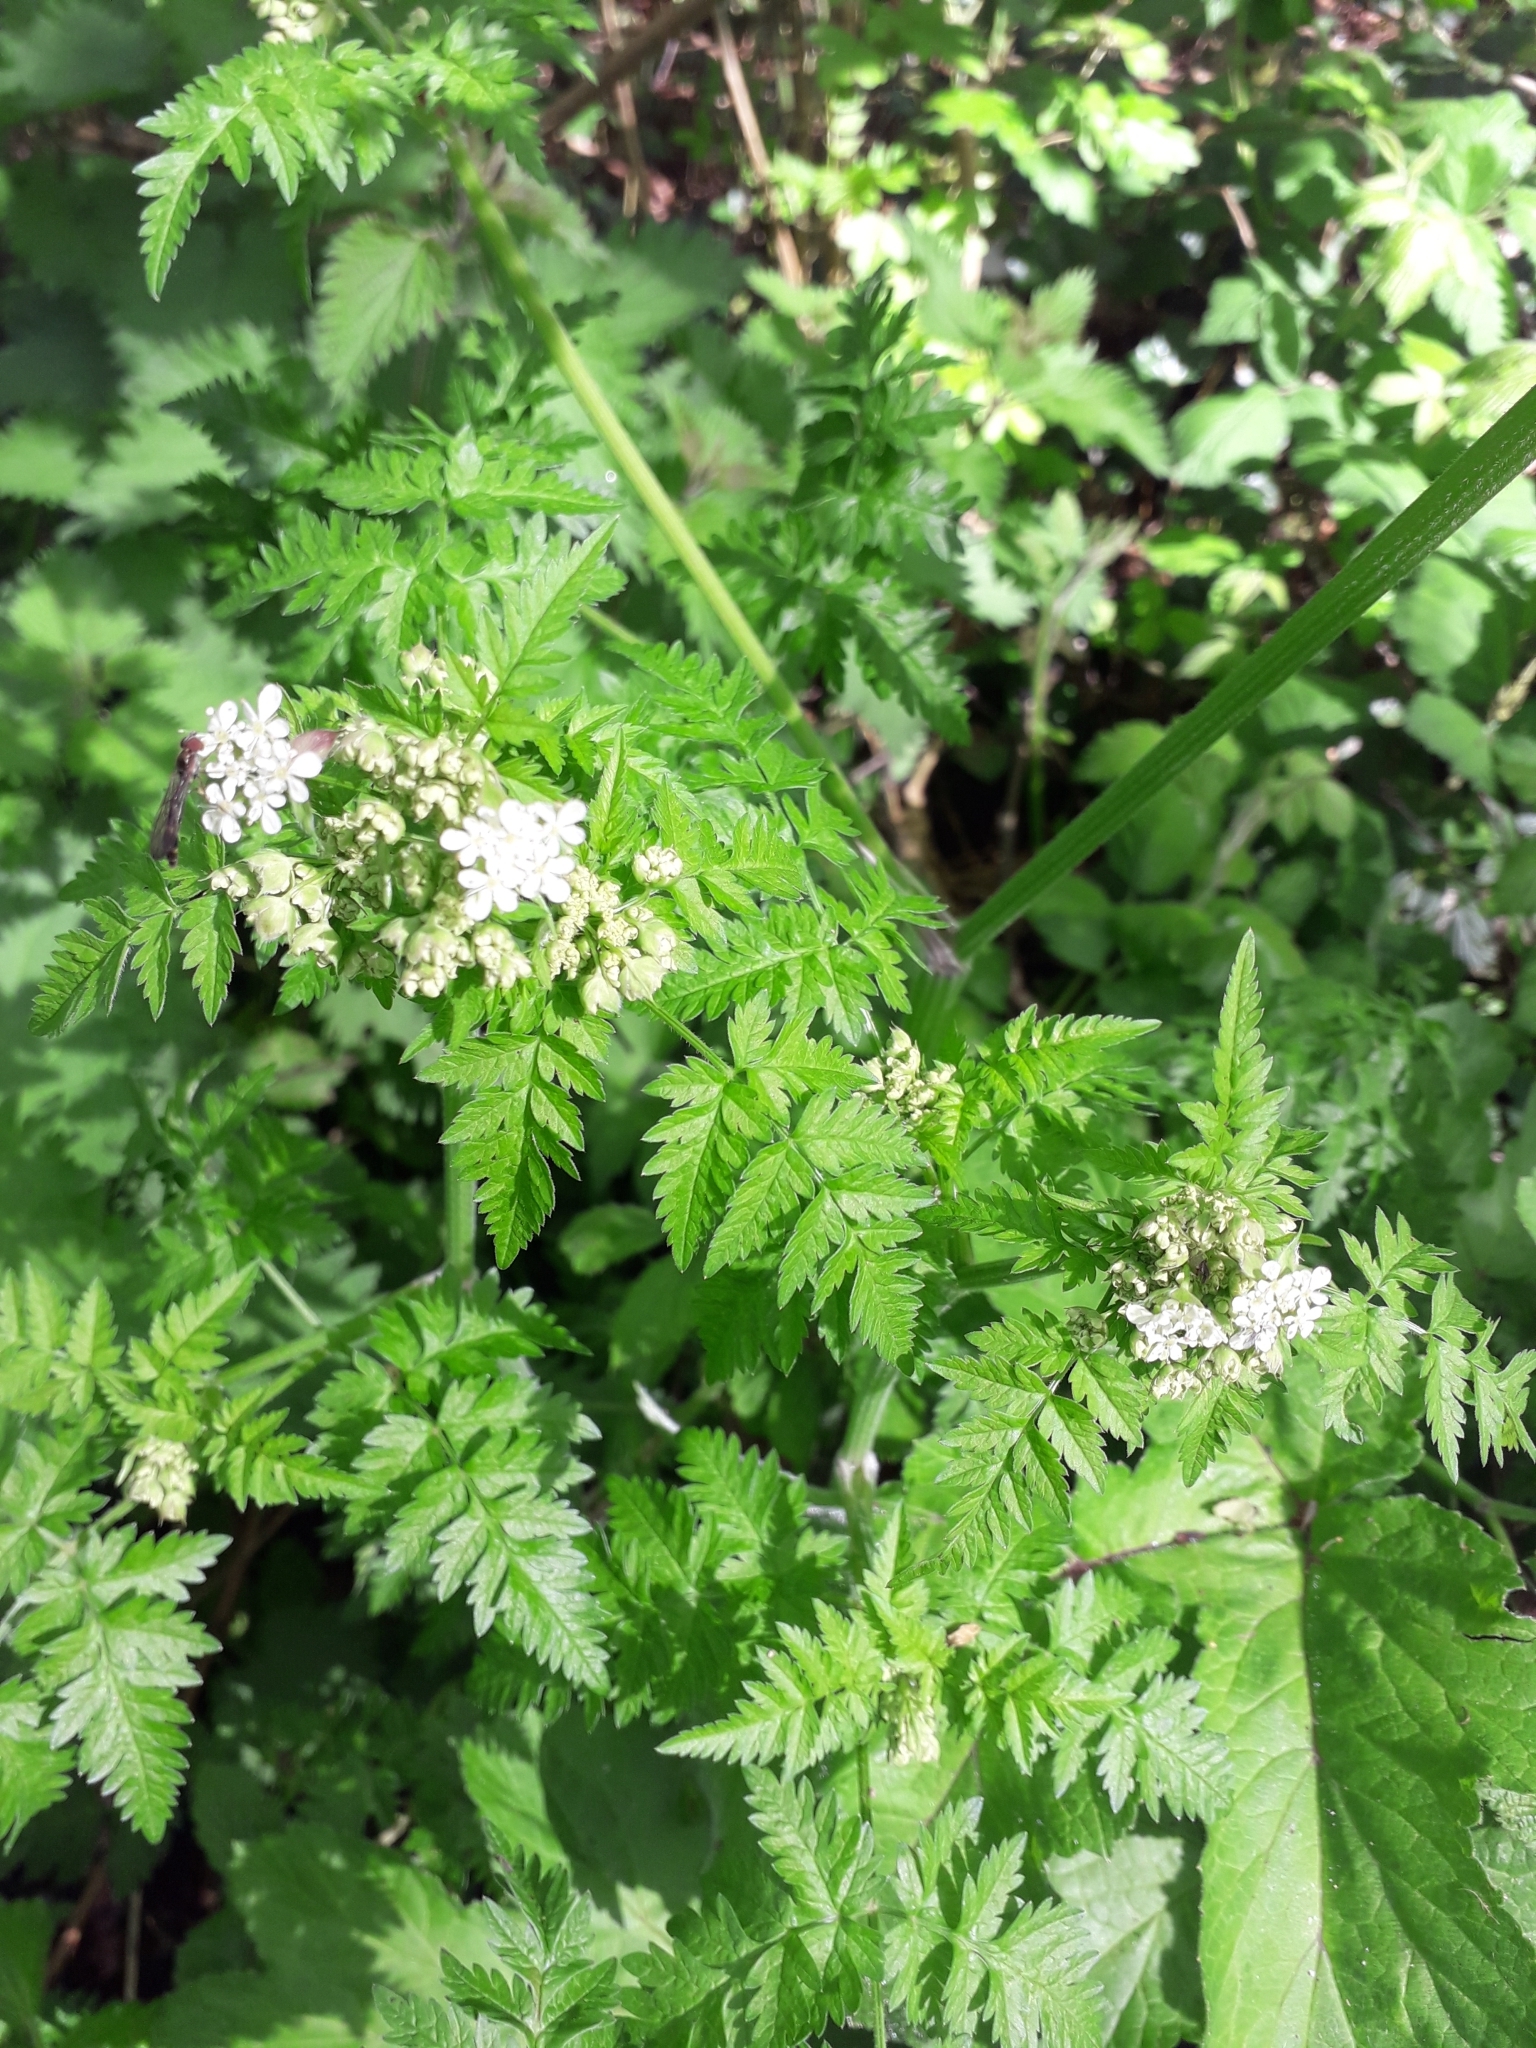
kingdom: Plantae
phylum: Tracheophyta
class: Magnoliopsida
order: Apiales
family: Apiaceae
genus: Anthriscus
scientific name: Anthriscus sylvestris
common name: Cow parsley
